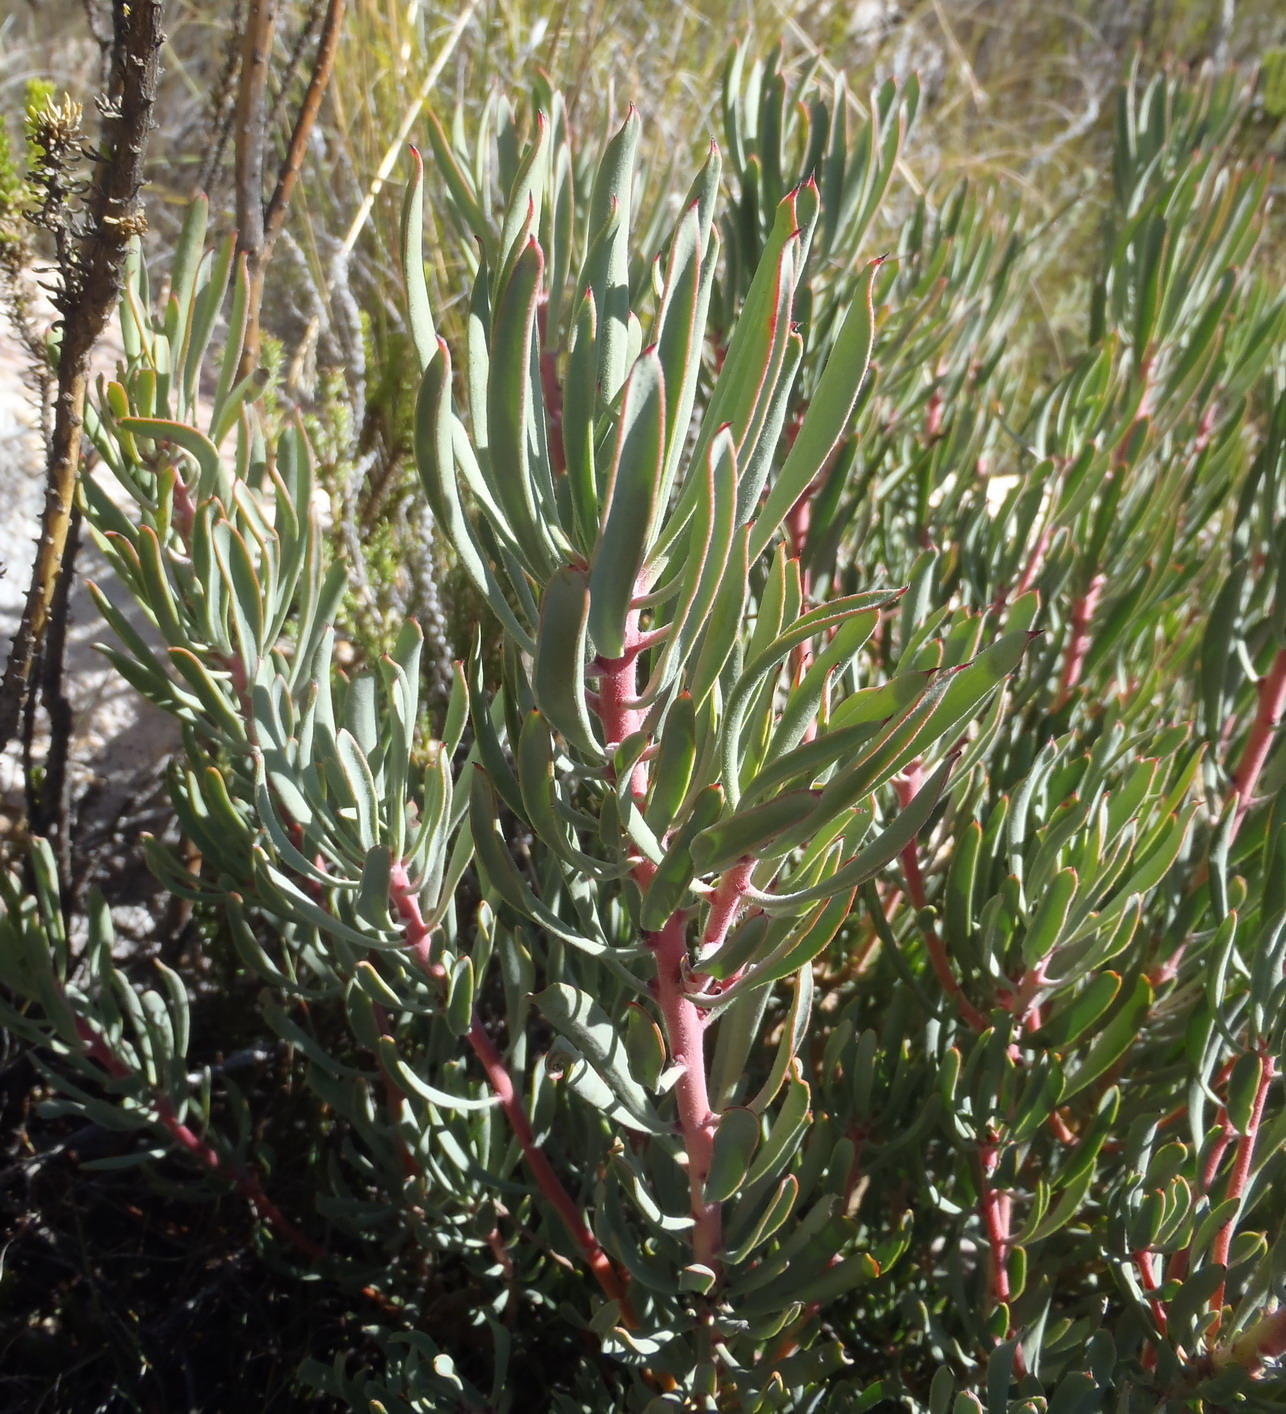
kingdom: Plantae
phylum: Tracheophyta
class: Magnoliopsida
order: Proteales
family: Proteaceae
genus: Protea
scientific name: Protea canaliculata
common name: Groove-leaf sugarbush
